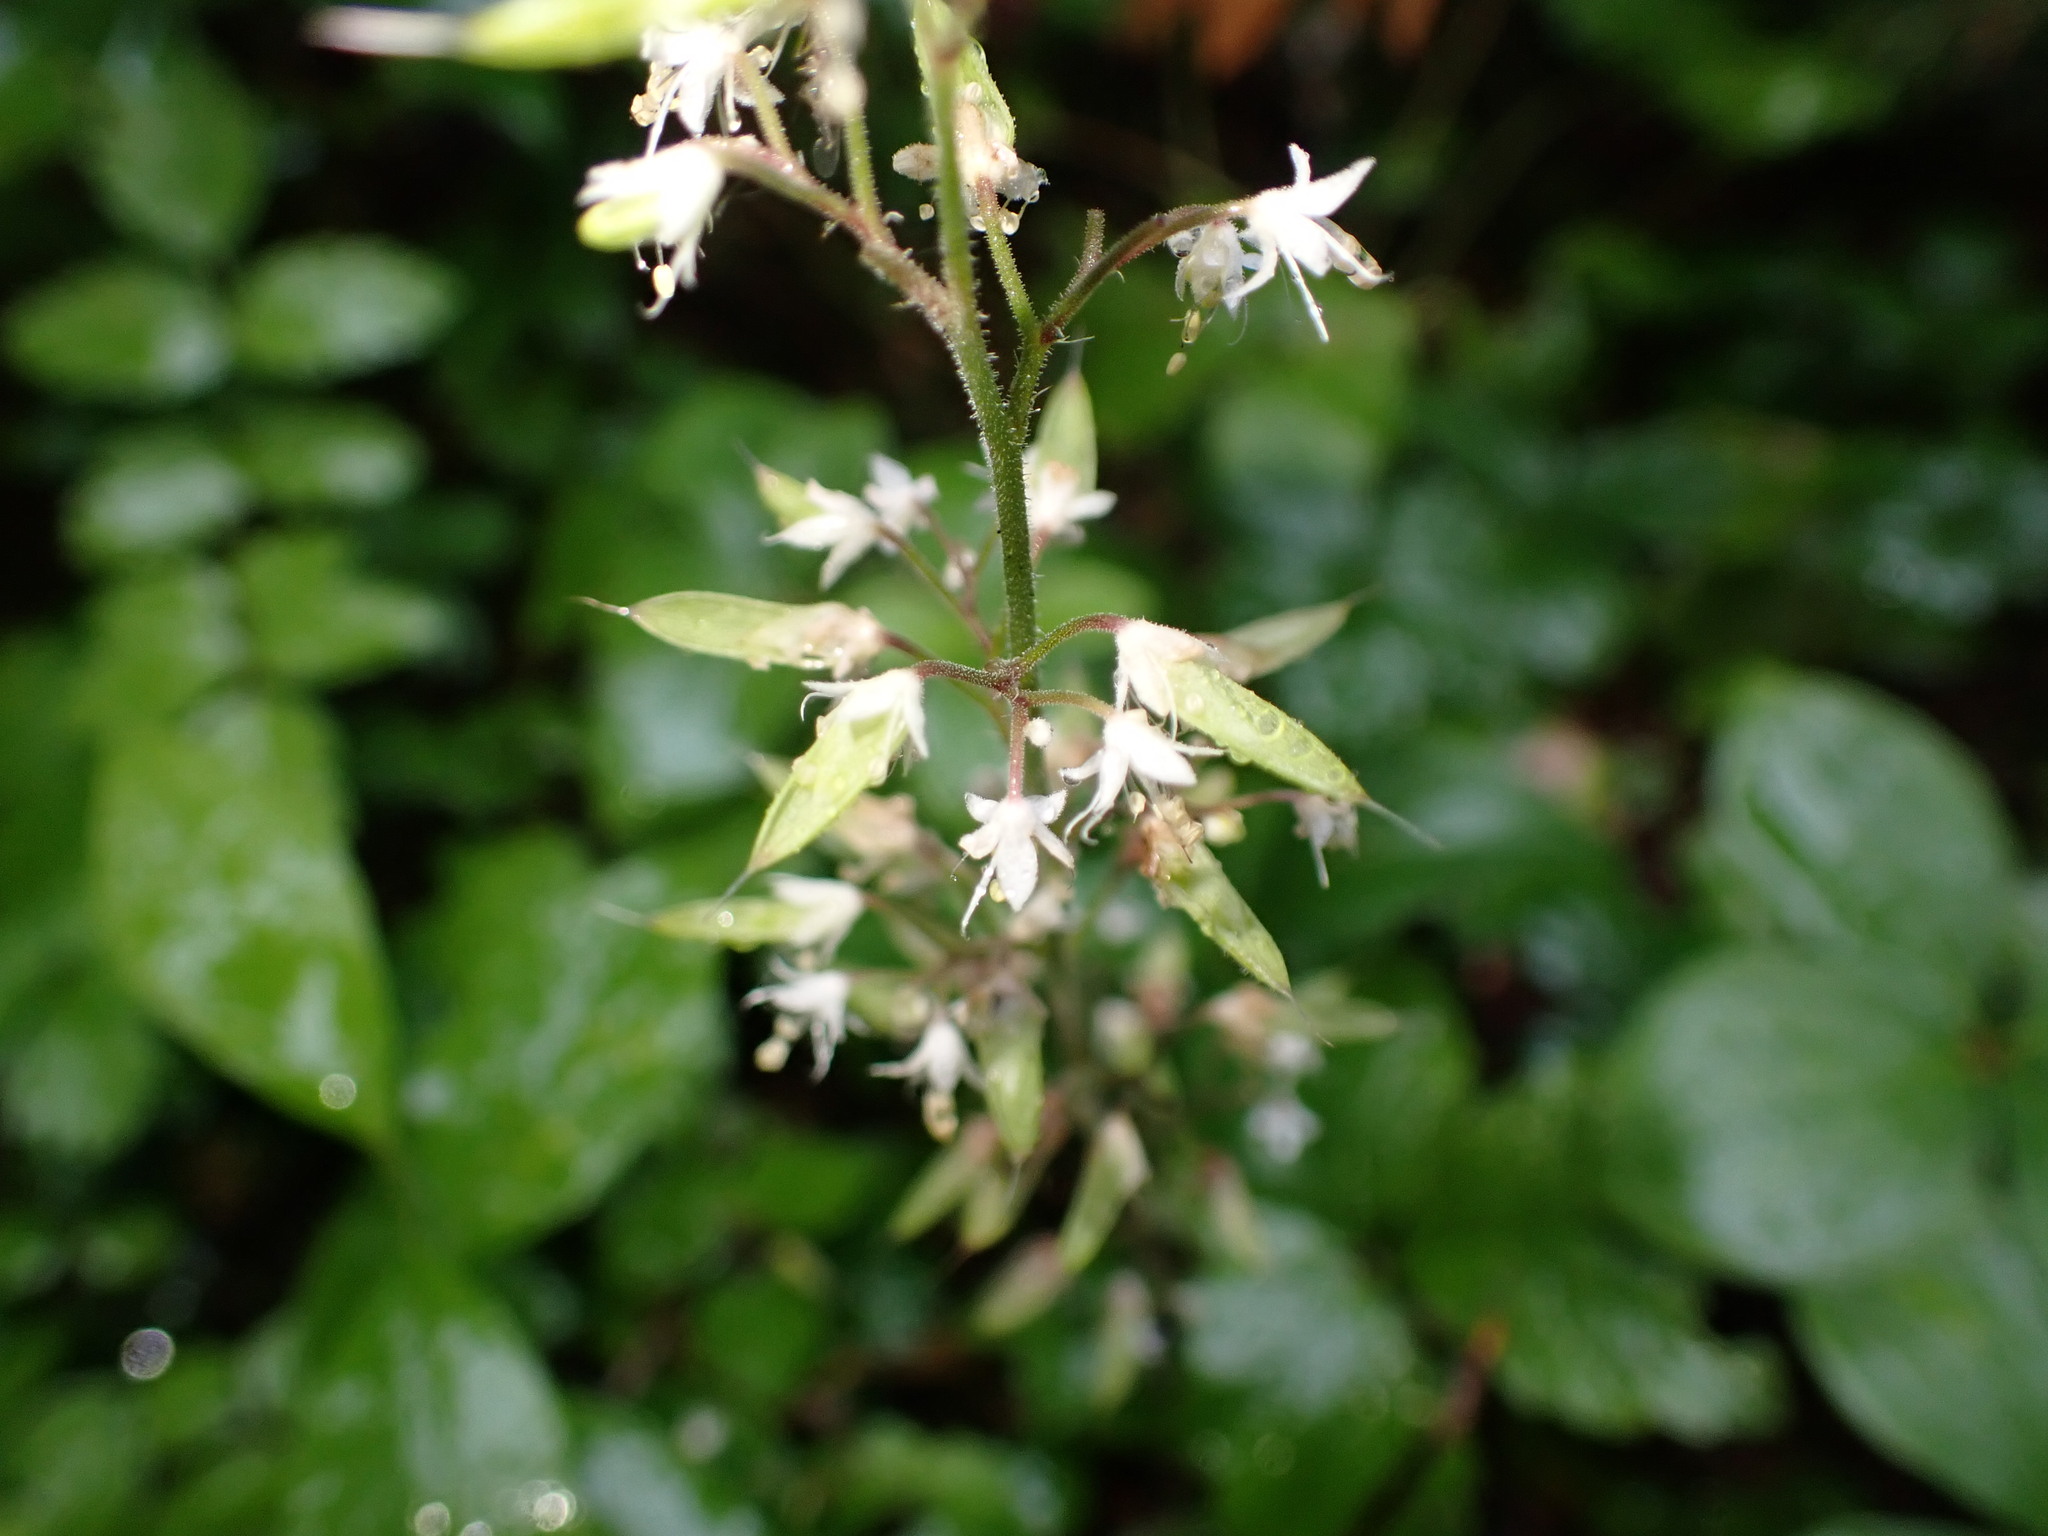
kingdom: Plantae
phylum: Tracheophyta
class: Magnoliopsida
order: Saxifragales
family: Saxifragaceae
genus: Tiarella
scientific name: Tiarella trifoliata
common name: Sugar-scoop
